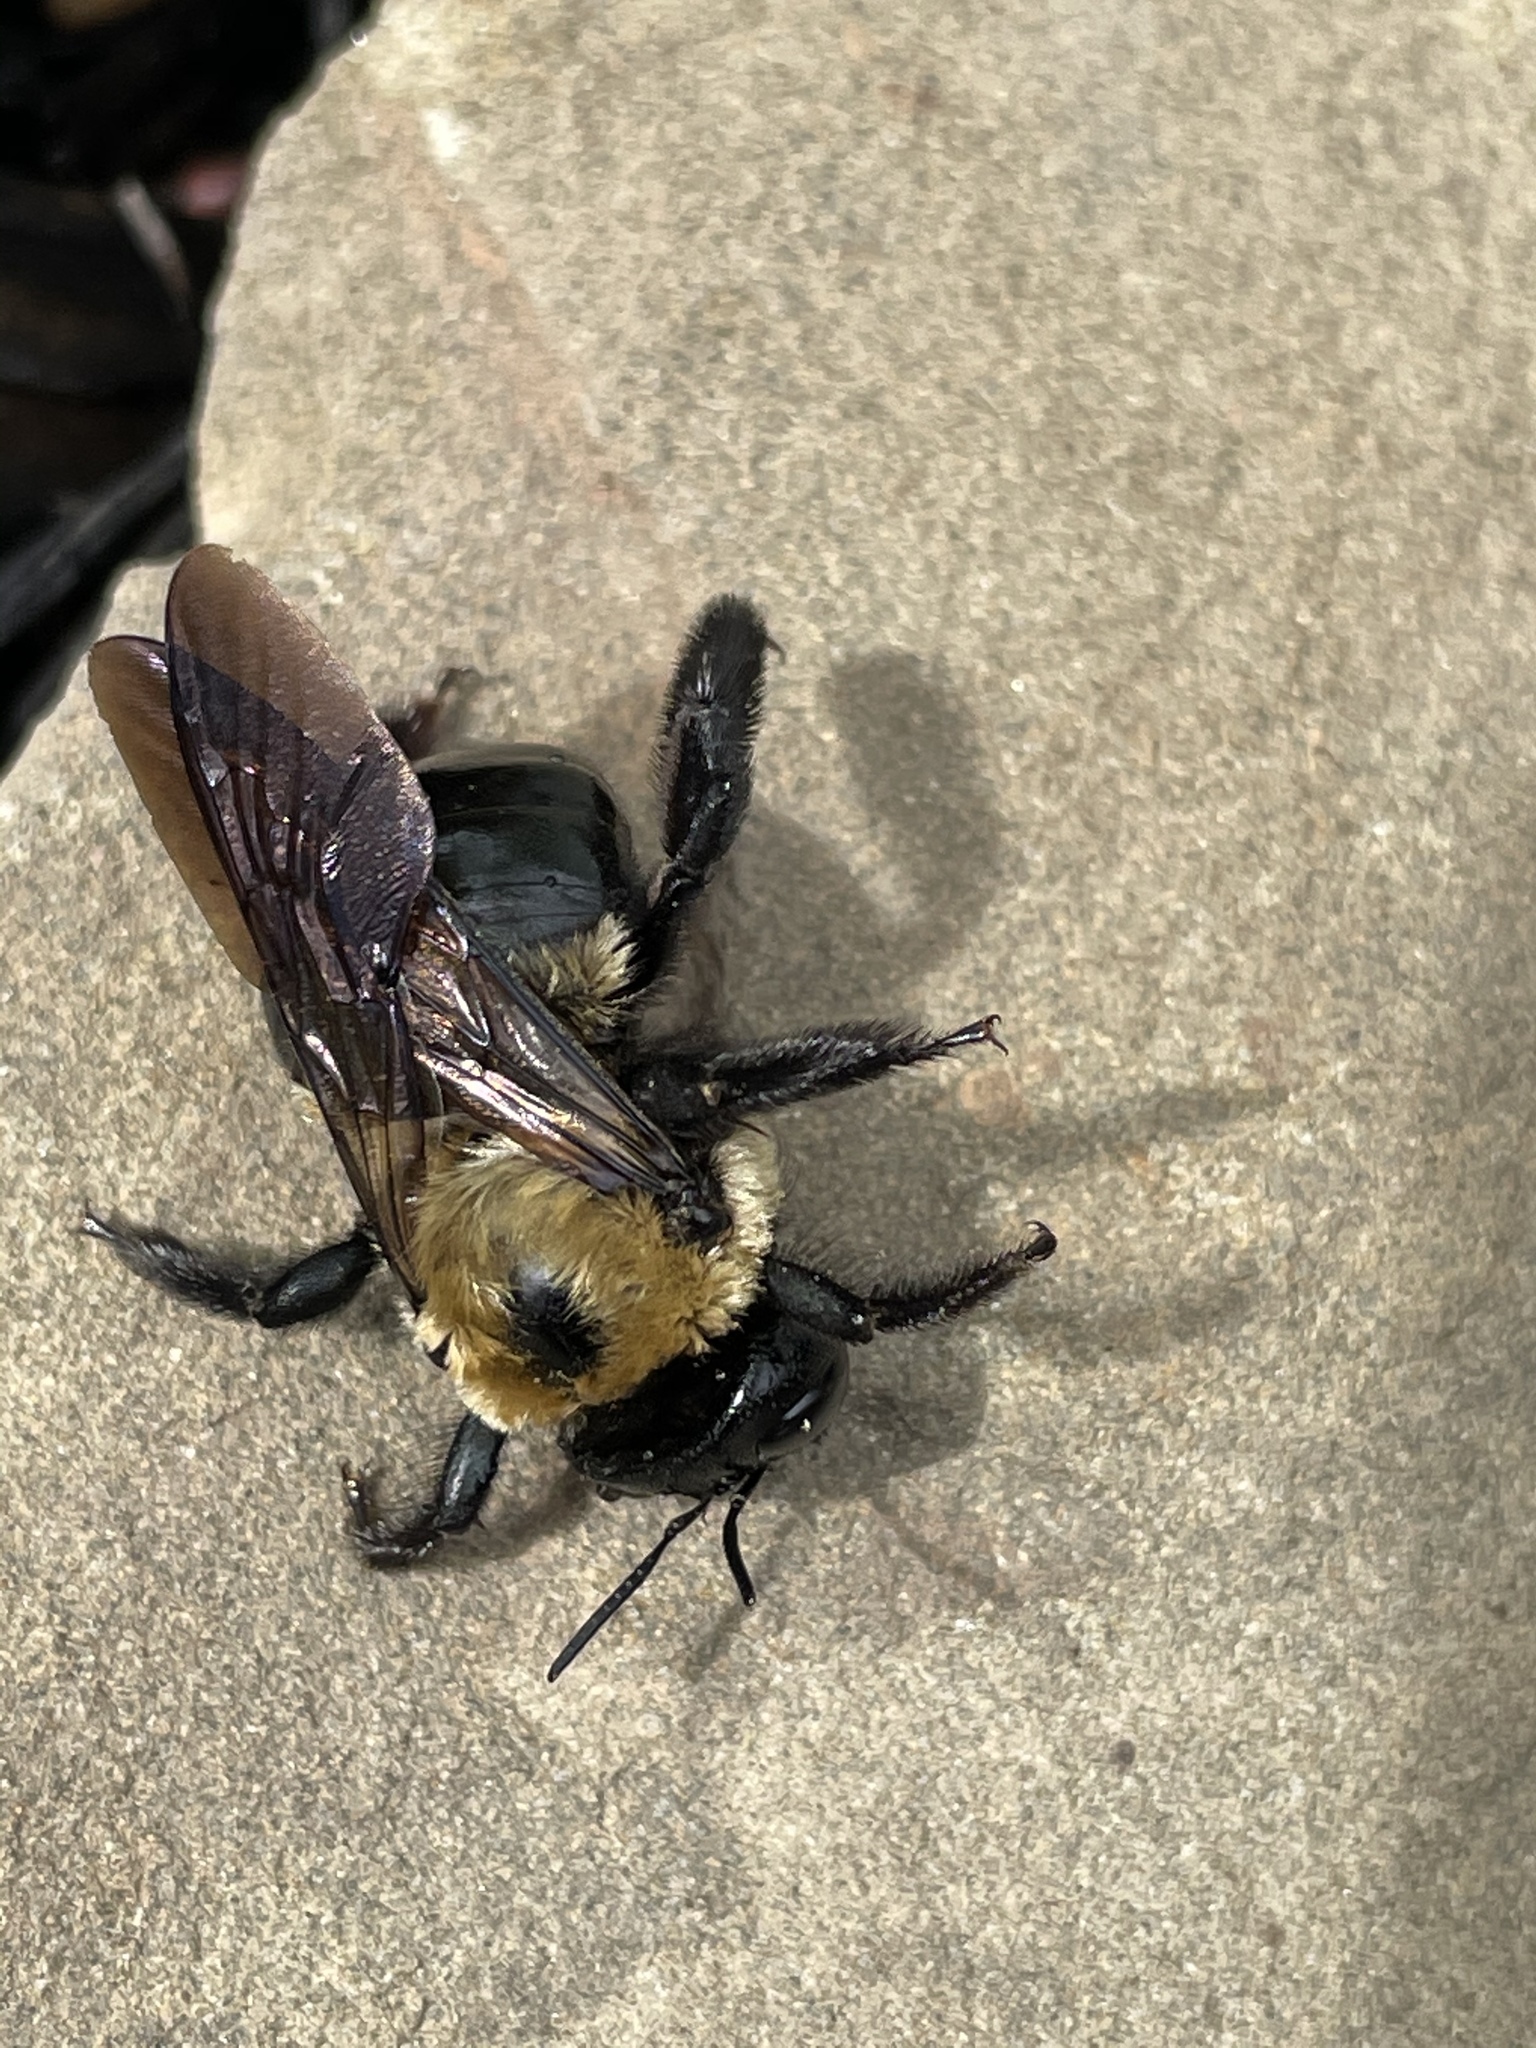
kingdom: Animalia
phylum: Arthropoda
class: Insecta
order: Hymenoptera
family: Apidae
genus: Xylocopa
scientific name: Xylocopa virginica
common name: Carpenter bee
